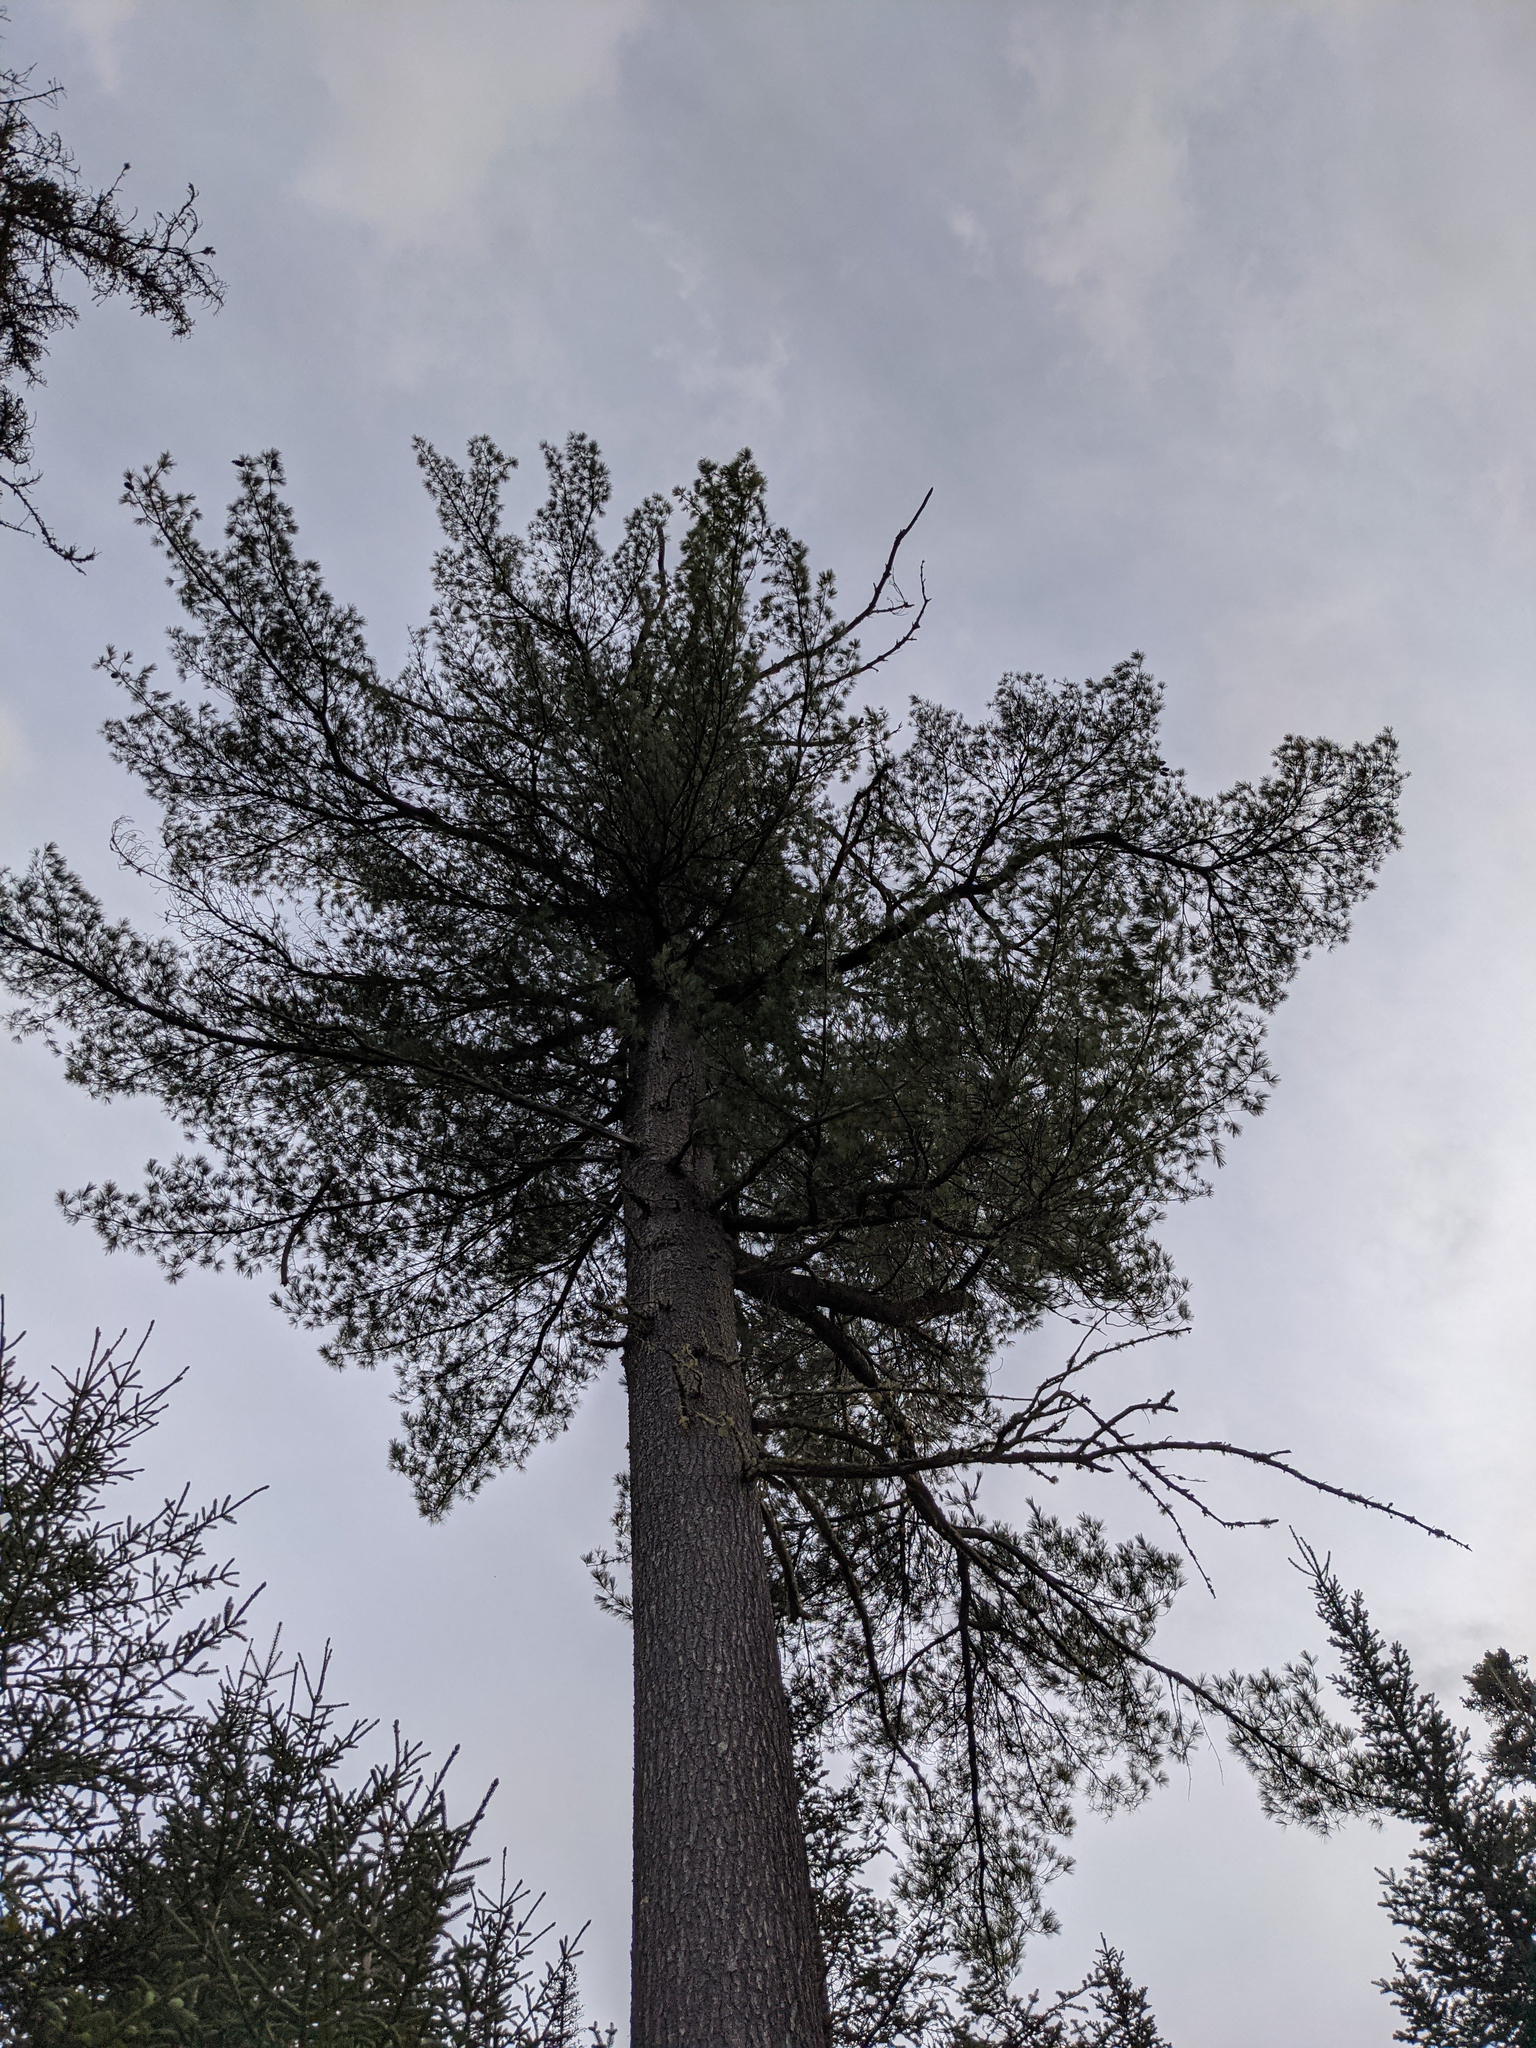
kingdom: Plantae
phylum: Tracheophyta
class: Pinopsida
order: Pinales
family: Pinaceae
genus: Pinus
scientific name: Pinus strobus
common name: Weymouth pine
